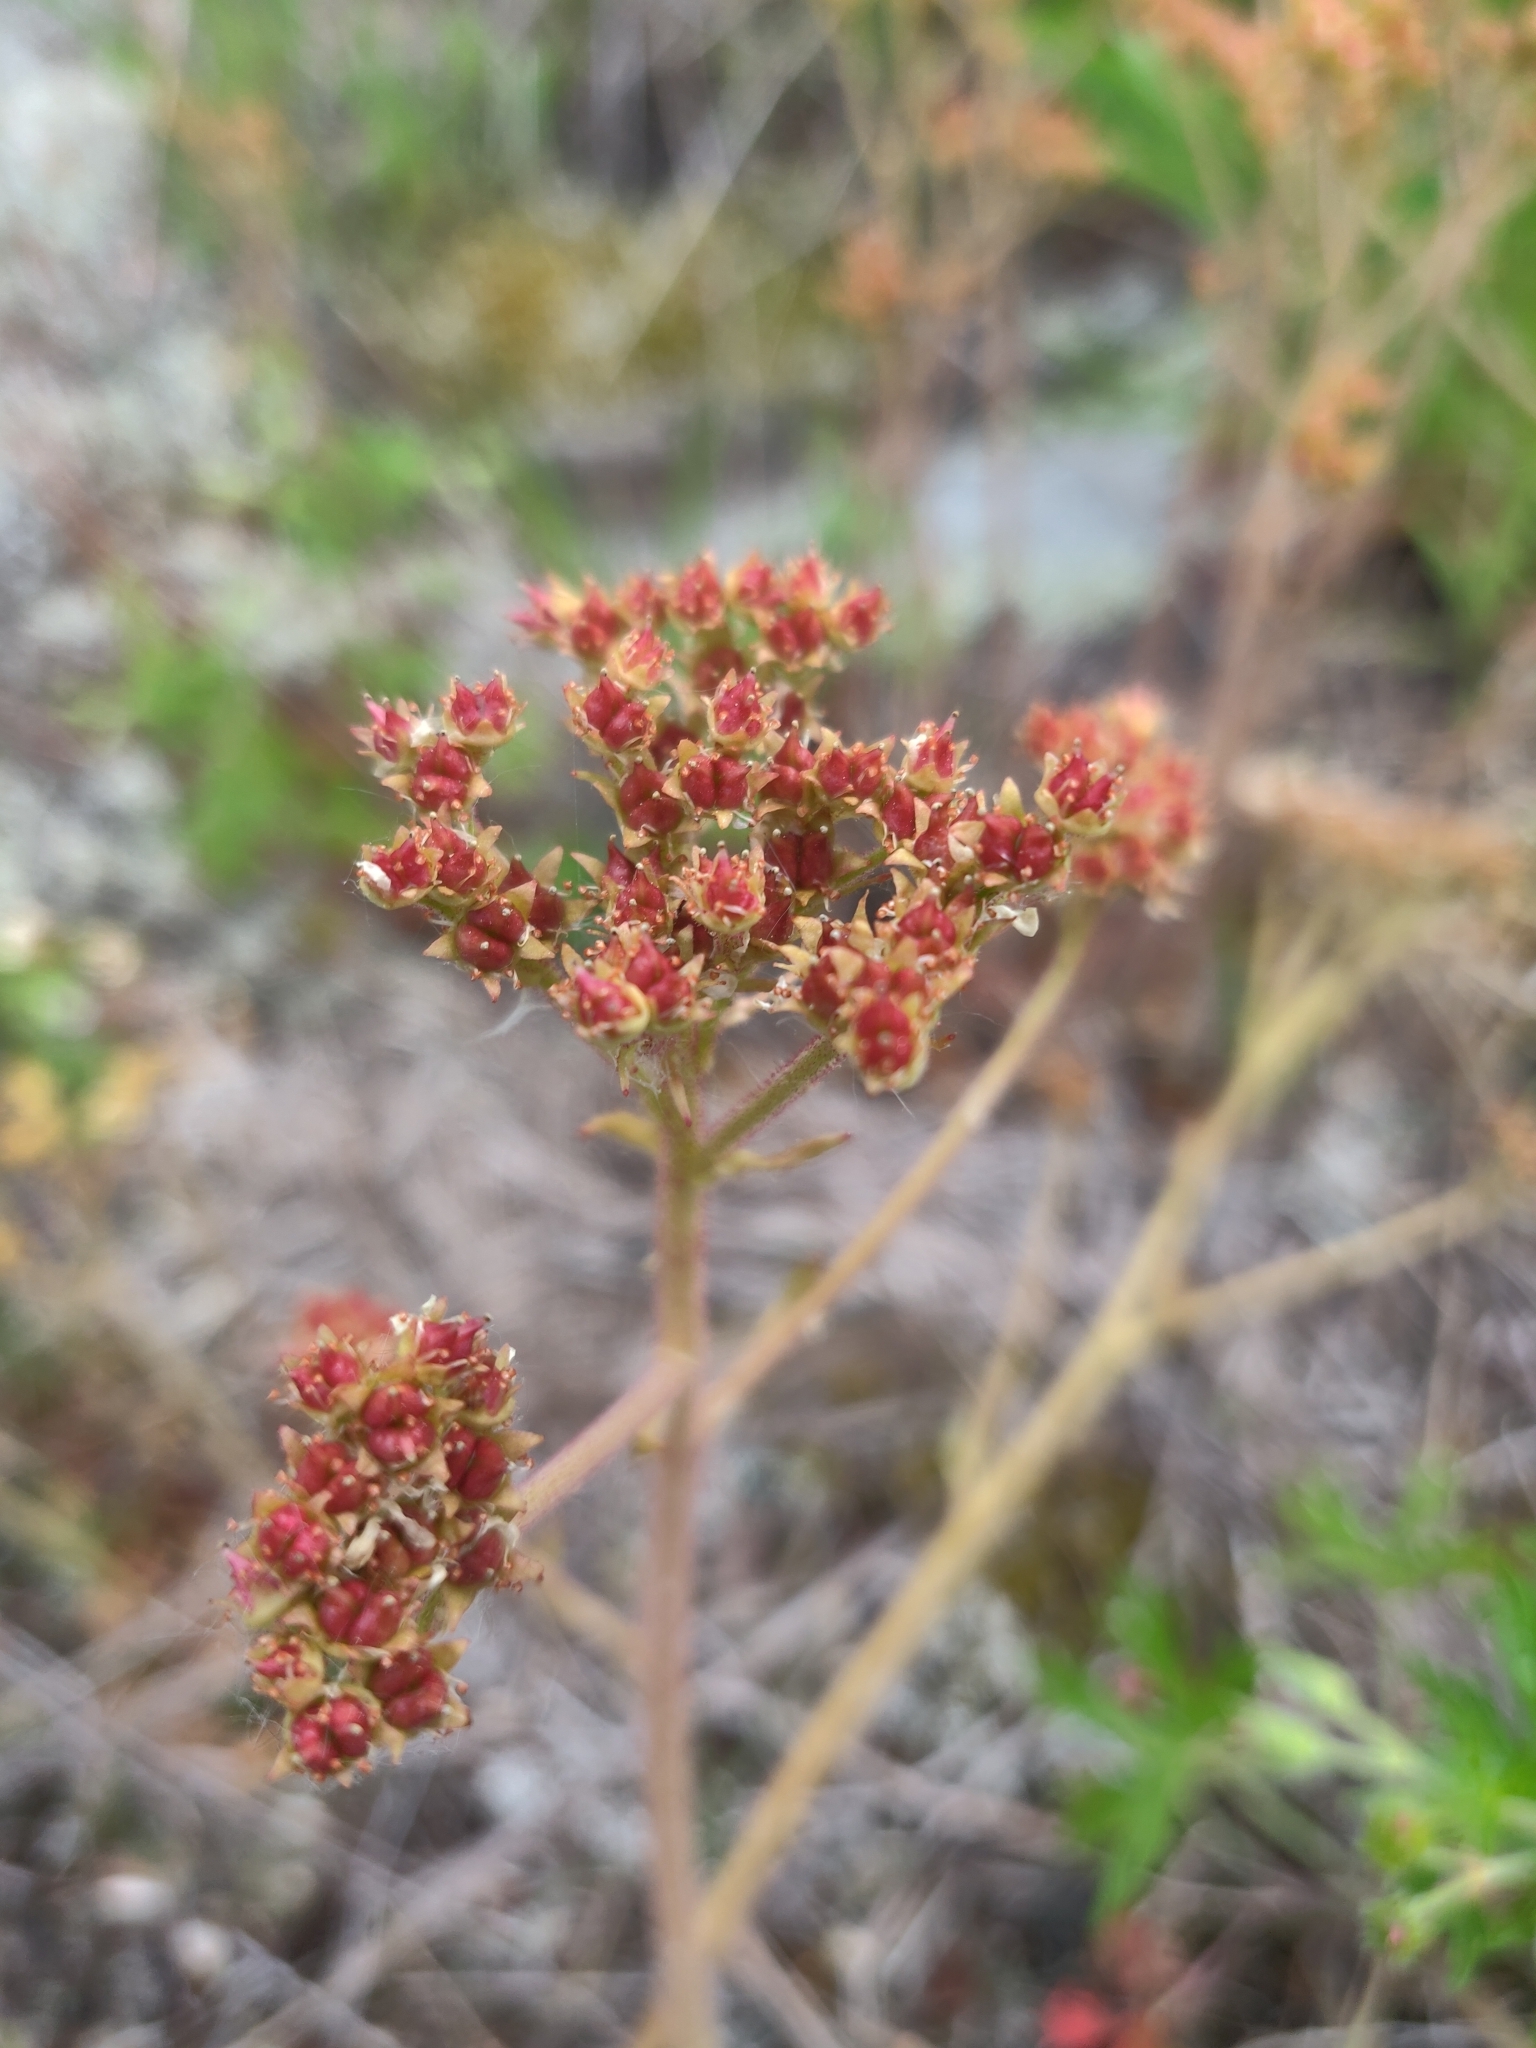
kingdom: Plantae
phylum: Tracheophyta
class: Magnoliopsida
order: Saxifragales
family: Saxifragaceae
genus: Micranthes
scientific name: Micranthes virginiensis
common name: Early saxifrage
